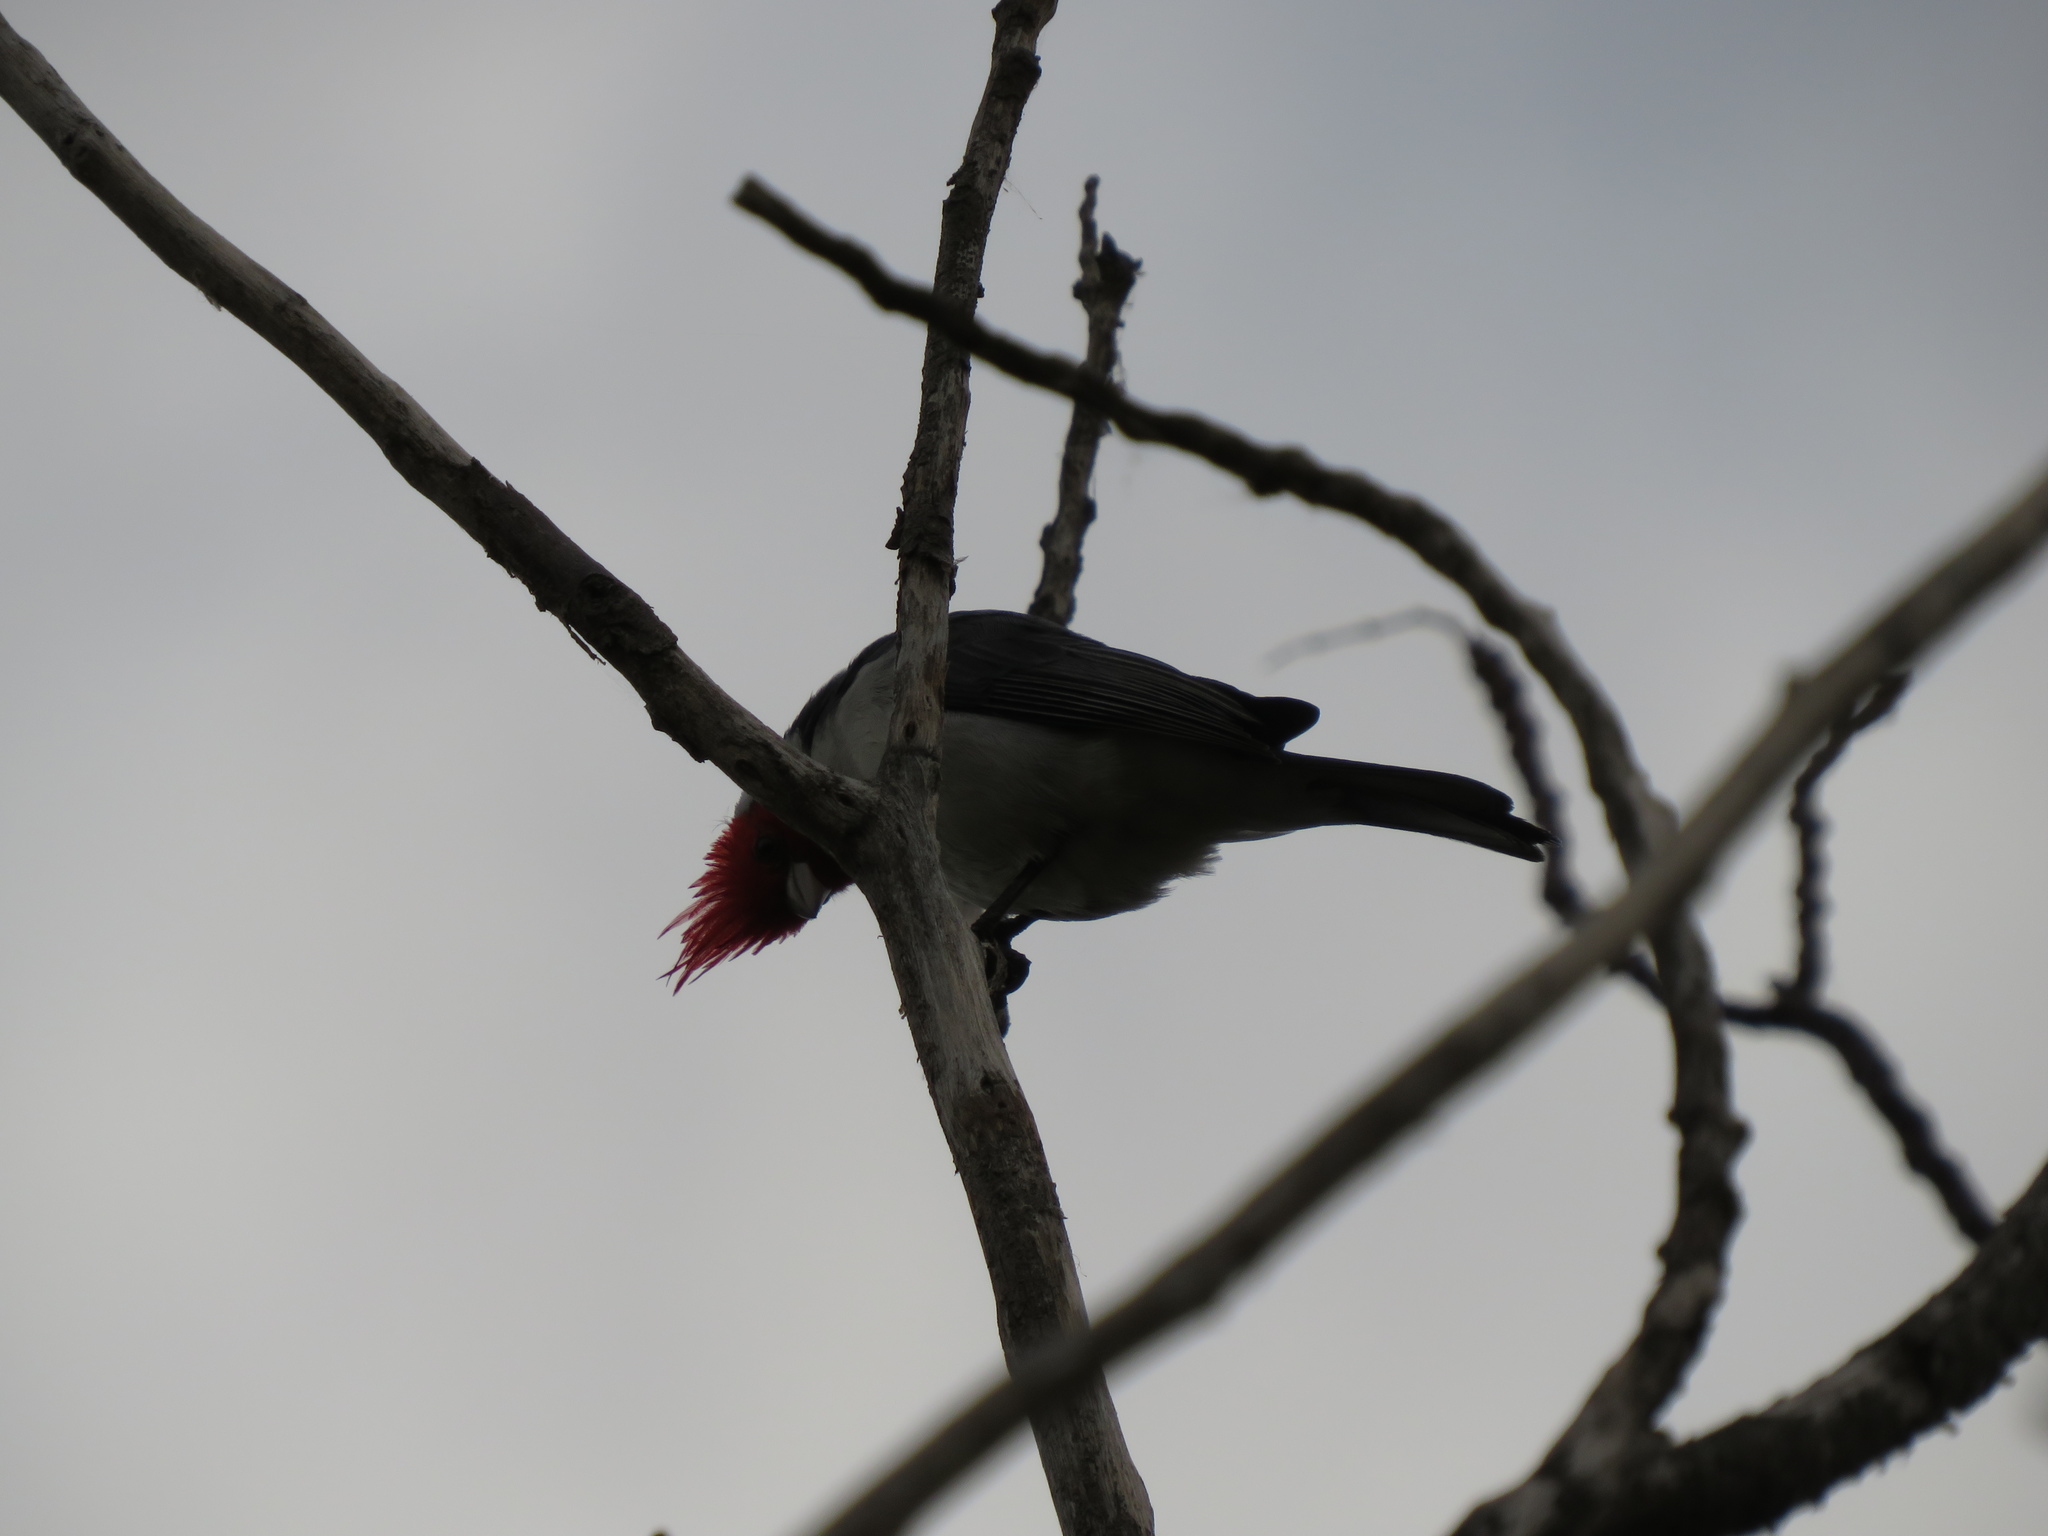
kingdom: Animalia
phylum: Chordata
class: Aves
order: Passeriformes
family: Thraupidae
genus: Paroaria
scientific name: Paroaria coronata
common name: Red-crested cardinal
